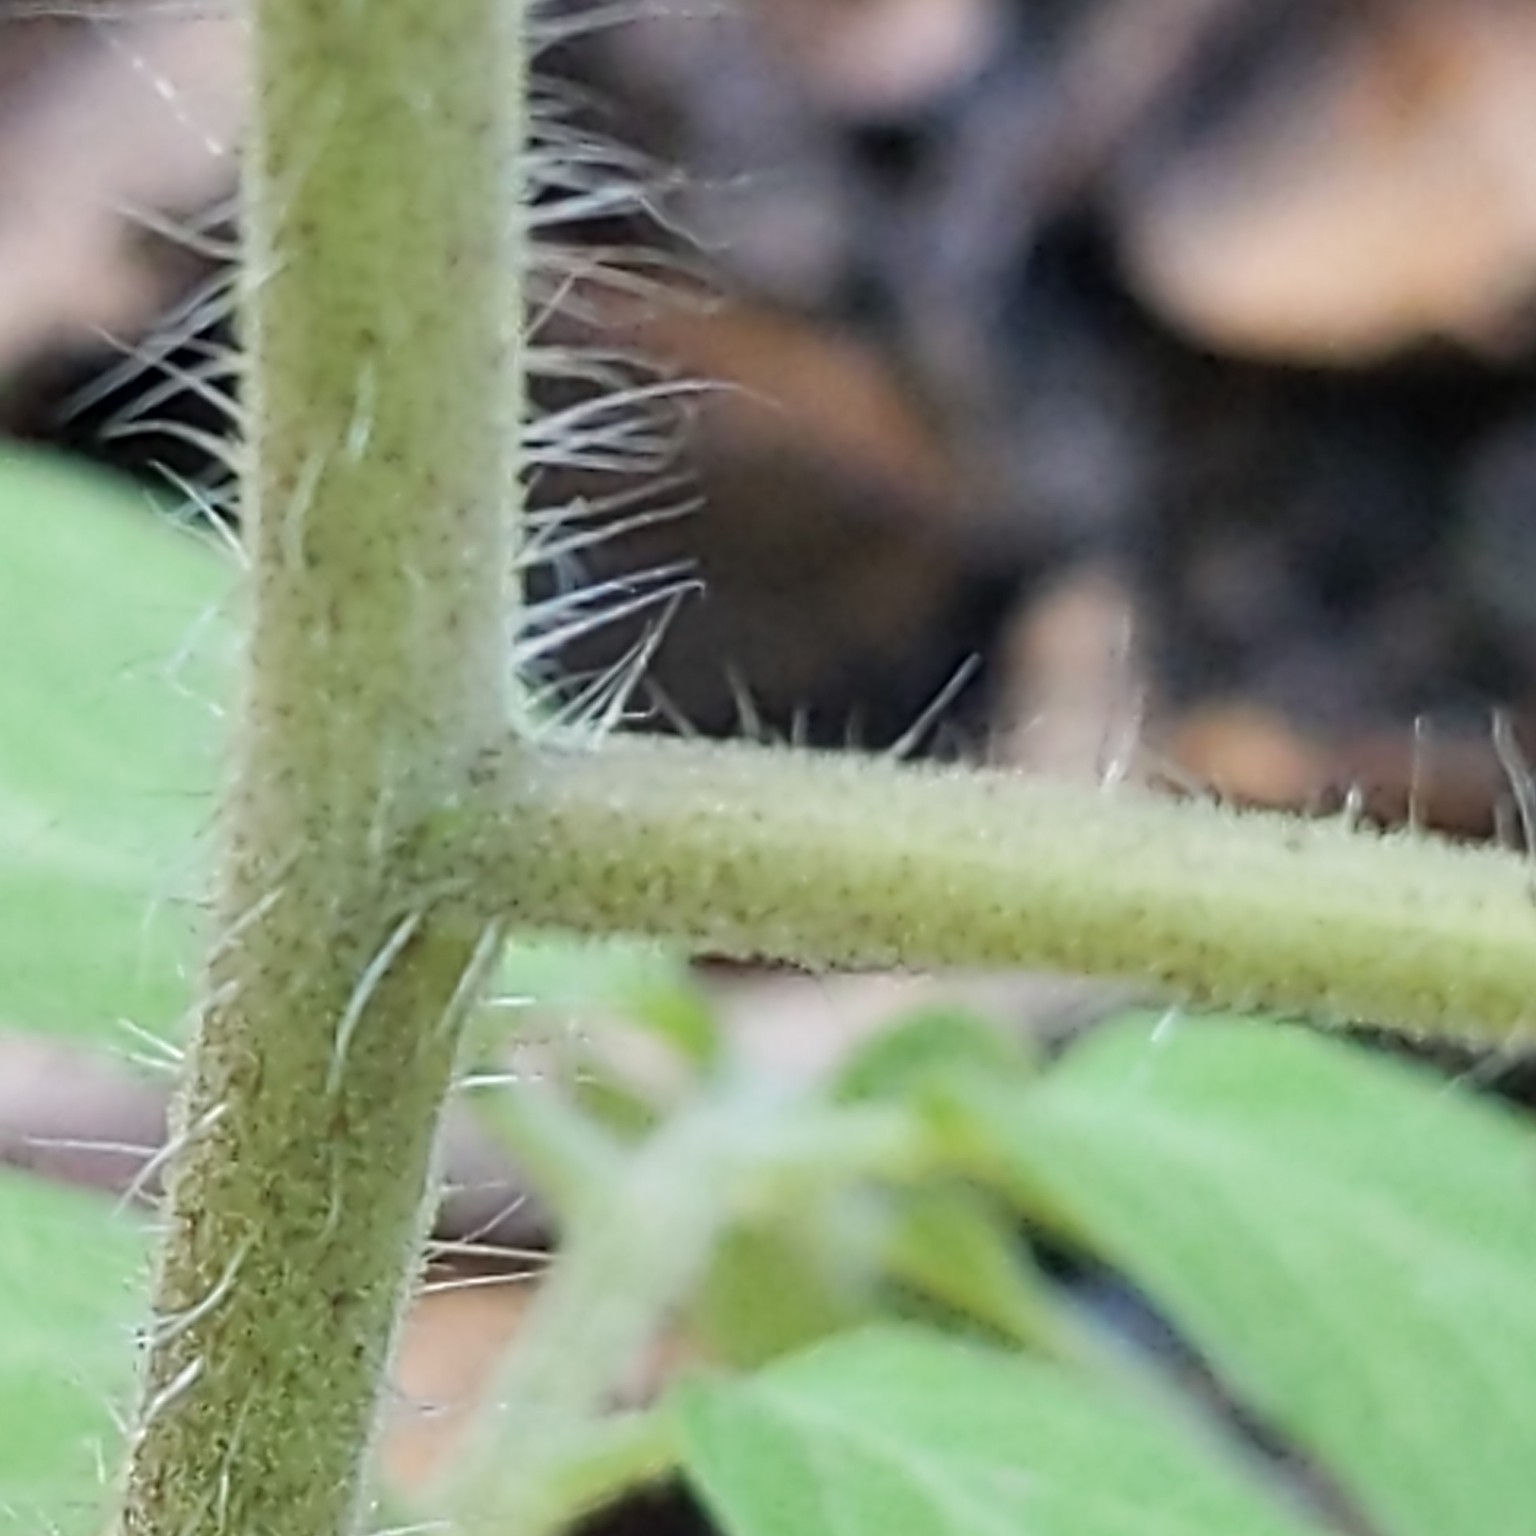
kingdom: Plantae
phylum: Tracheophyta
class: Magnoliopsida
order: Solanales
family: Solanaceae
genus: Solanum
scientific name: Solanum lycopersicum
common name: Garden tomato
